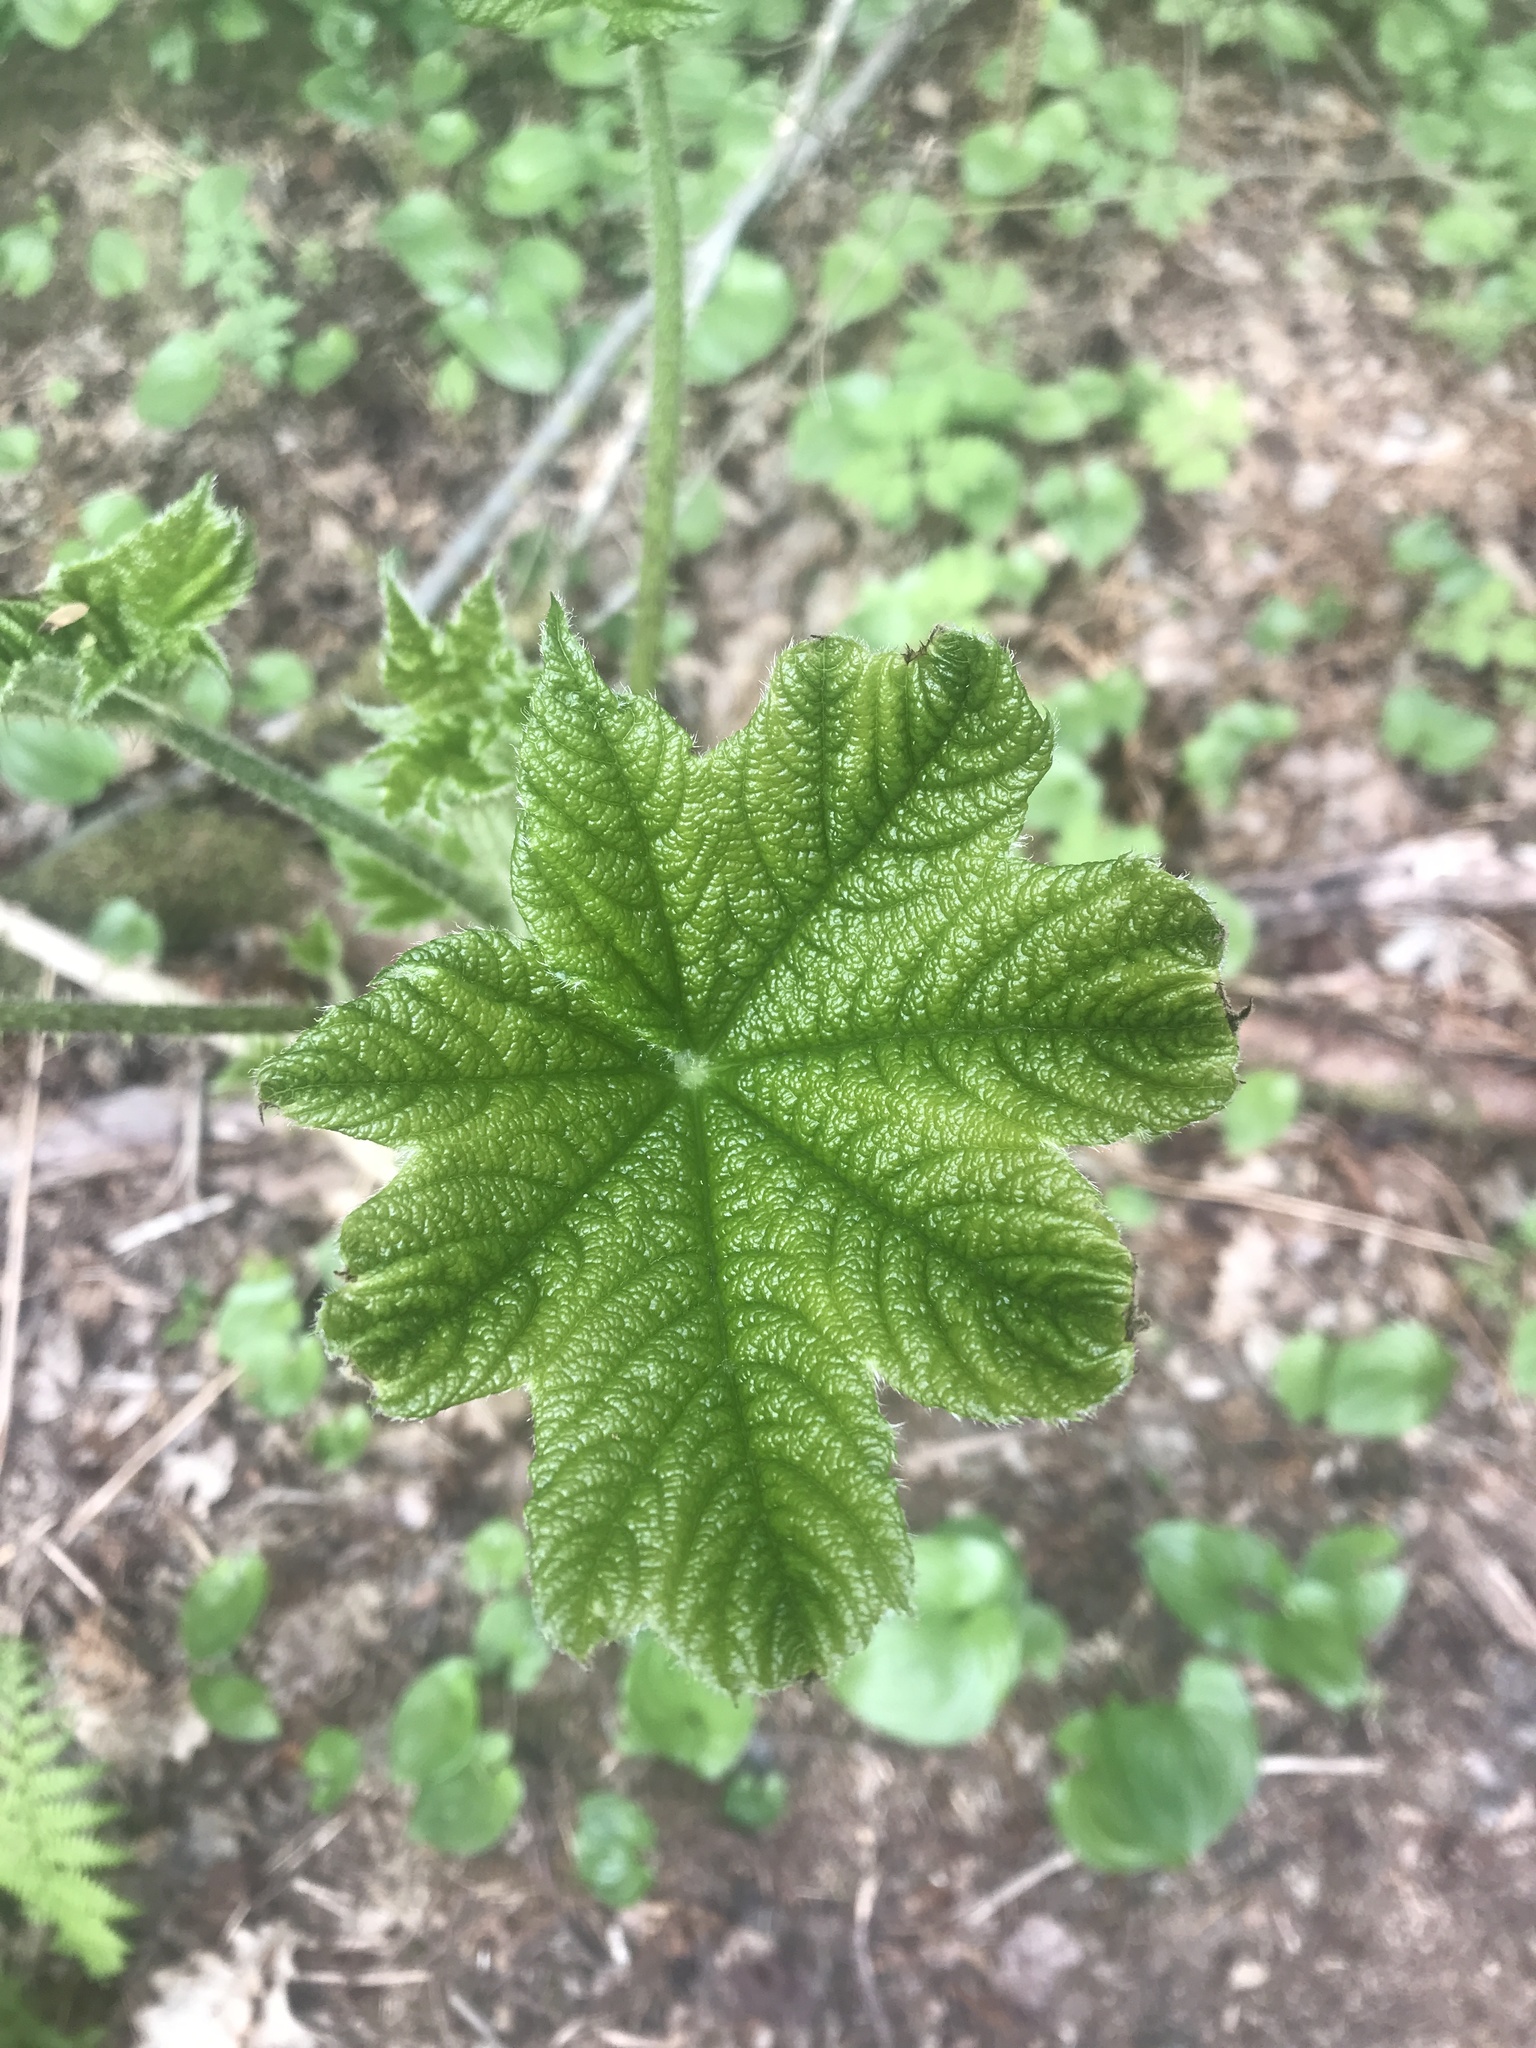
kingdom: Plantae
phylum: Tracheophyta
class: Magnoliopsida
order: Apiales
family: Araliaceae
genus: Oplopanax
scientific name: Oplopanax horridus
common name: Devil's walking-stick
